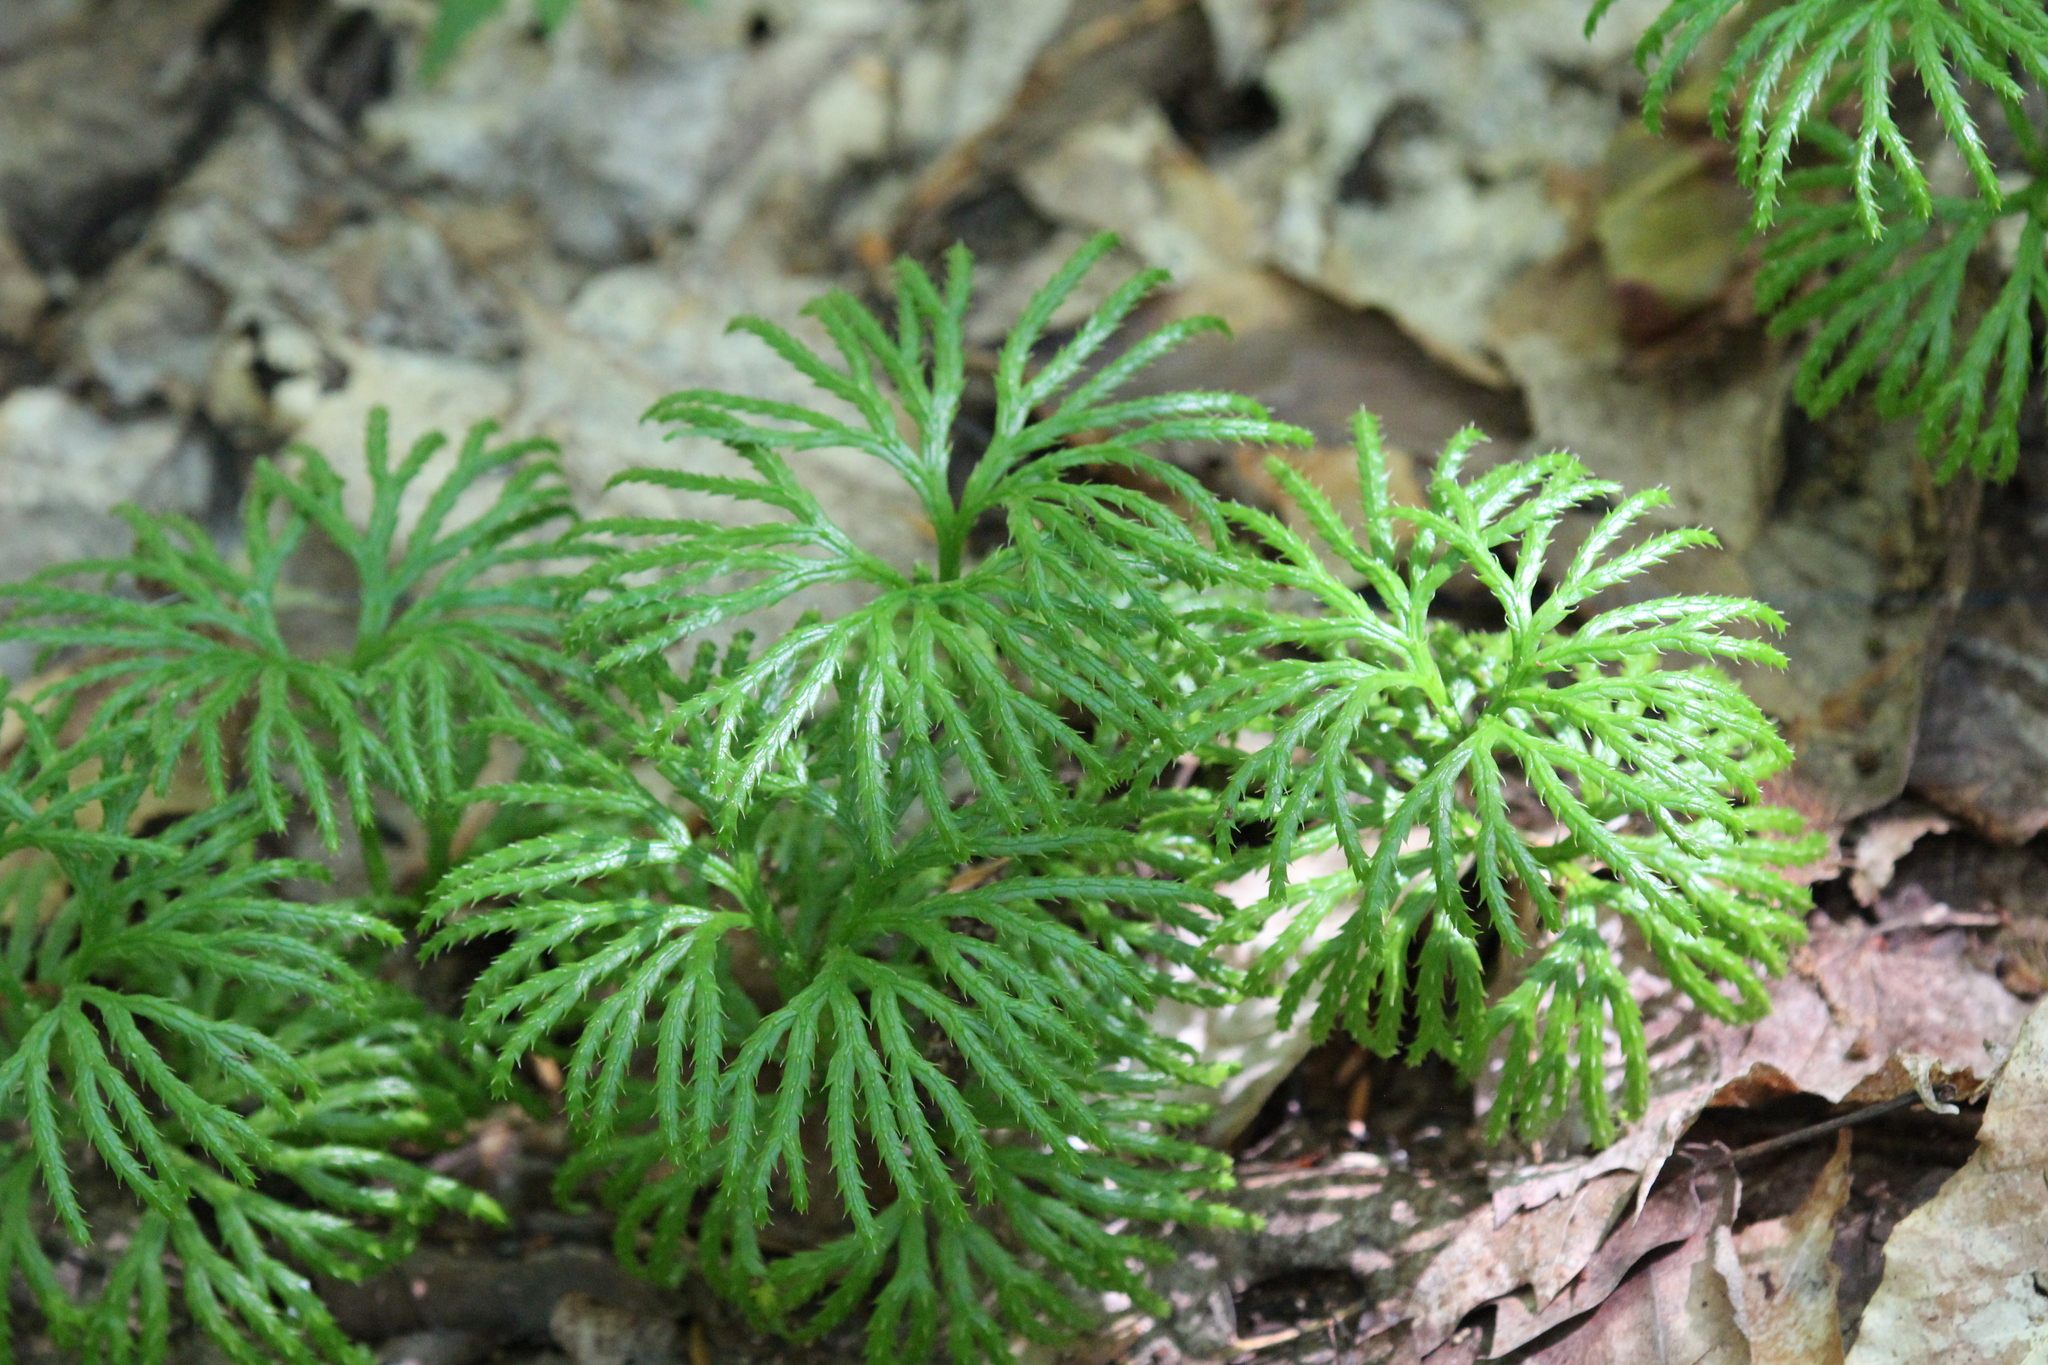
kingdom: Plantae
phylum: Tracheophyta
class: Lycopodiopsida
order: Lycopodiales
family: Lycopodiaceae
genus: Diphasiastrum
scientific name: Diphasiastrum digitatum
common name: Southern running-pine
